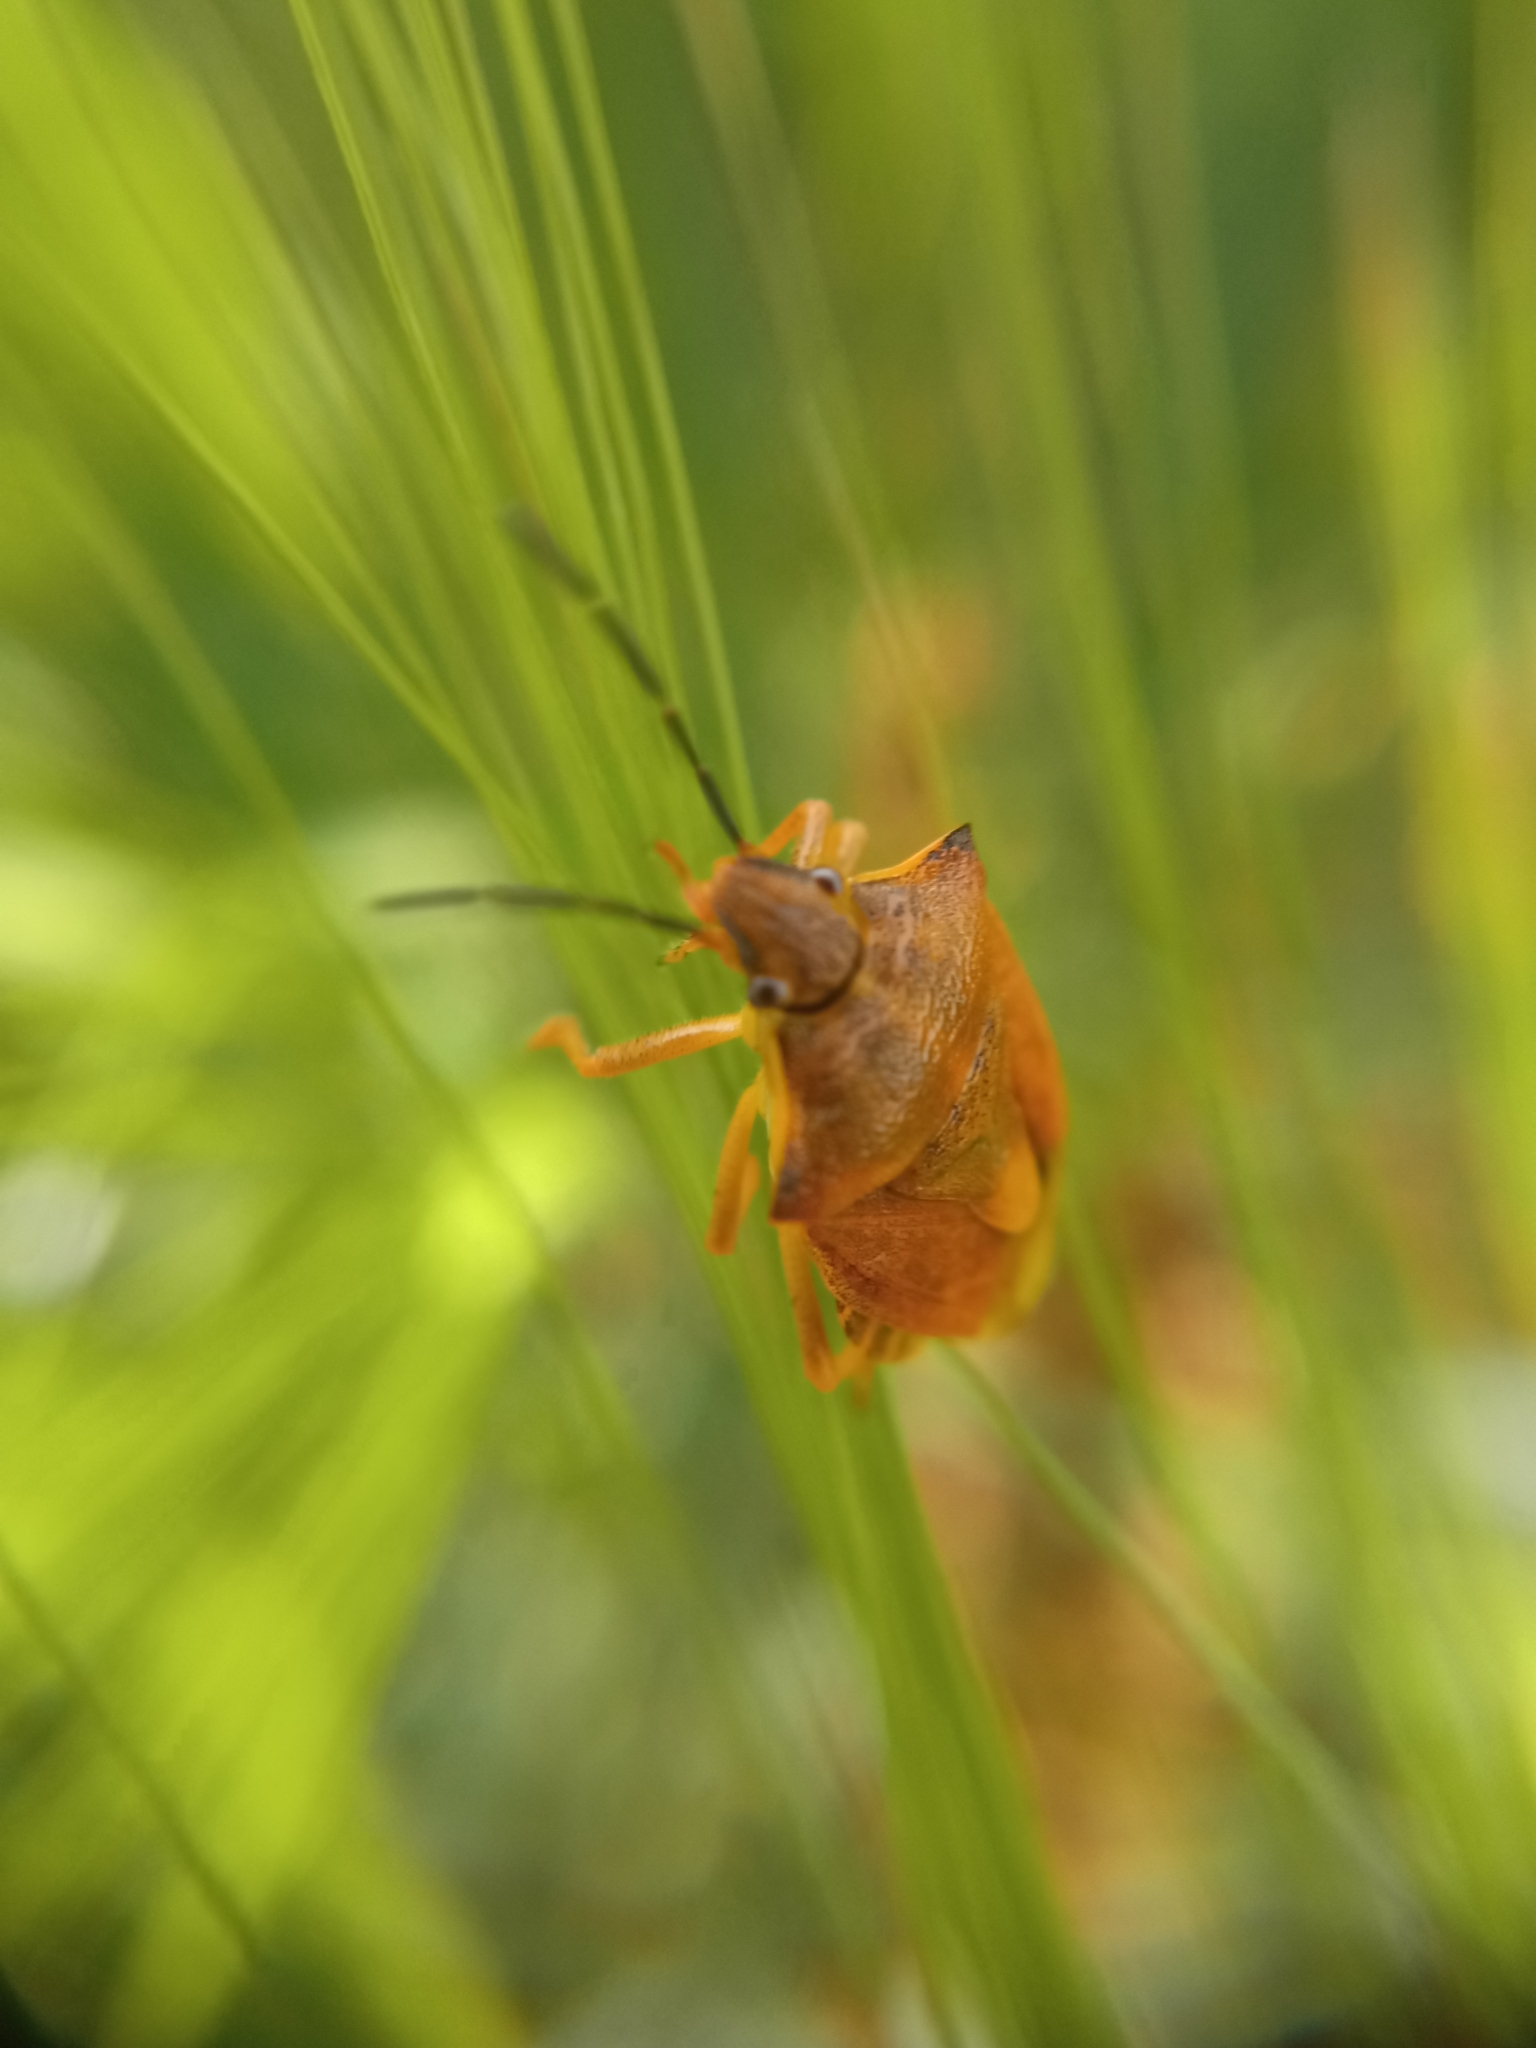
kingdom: Animalia
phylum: Arthropoda
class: Insecta
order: Hemiptera
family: Pentatomidae
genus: Carpocoris
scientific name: Carpocoris purpureipennis
